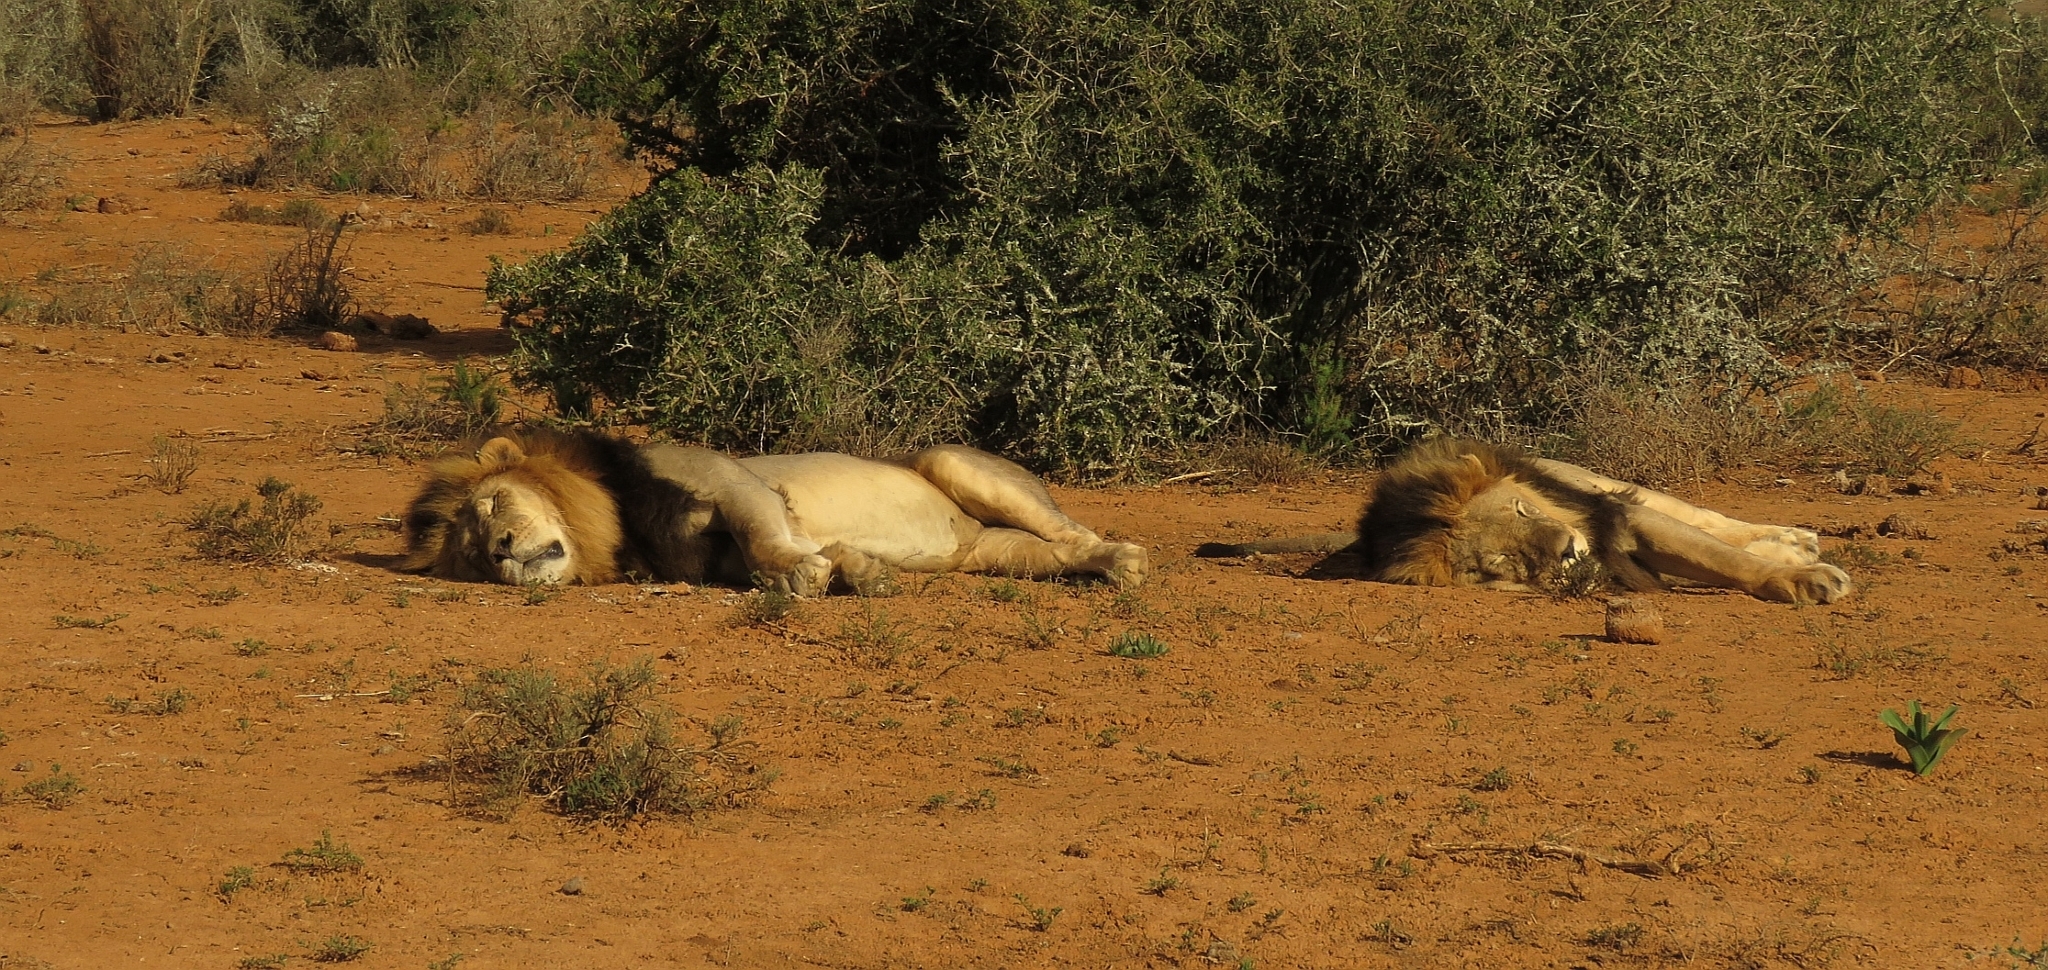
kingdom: Animalia
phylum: Chordata
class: Mammalia
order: Carnivora
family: Felidae
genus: Panthera
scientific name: Panthera leo
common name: Lion
